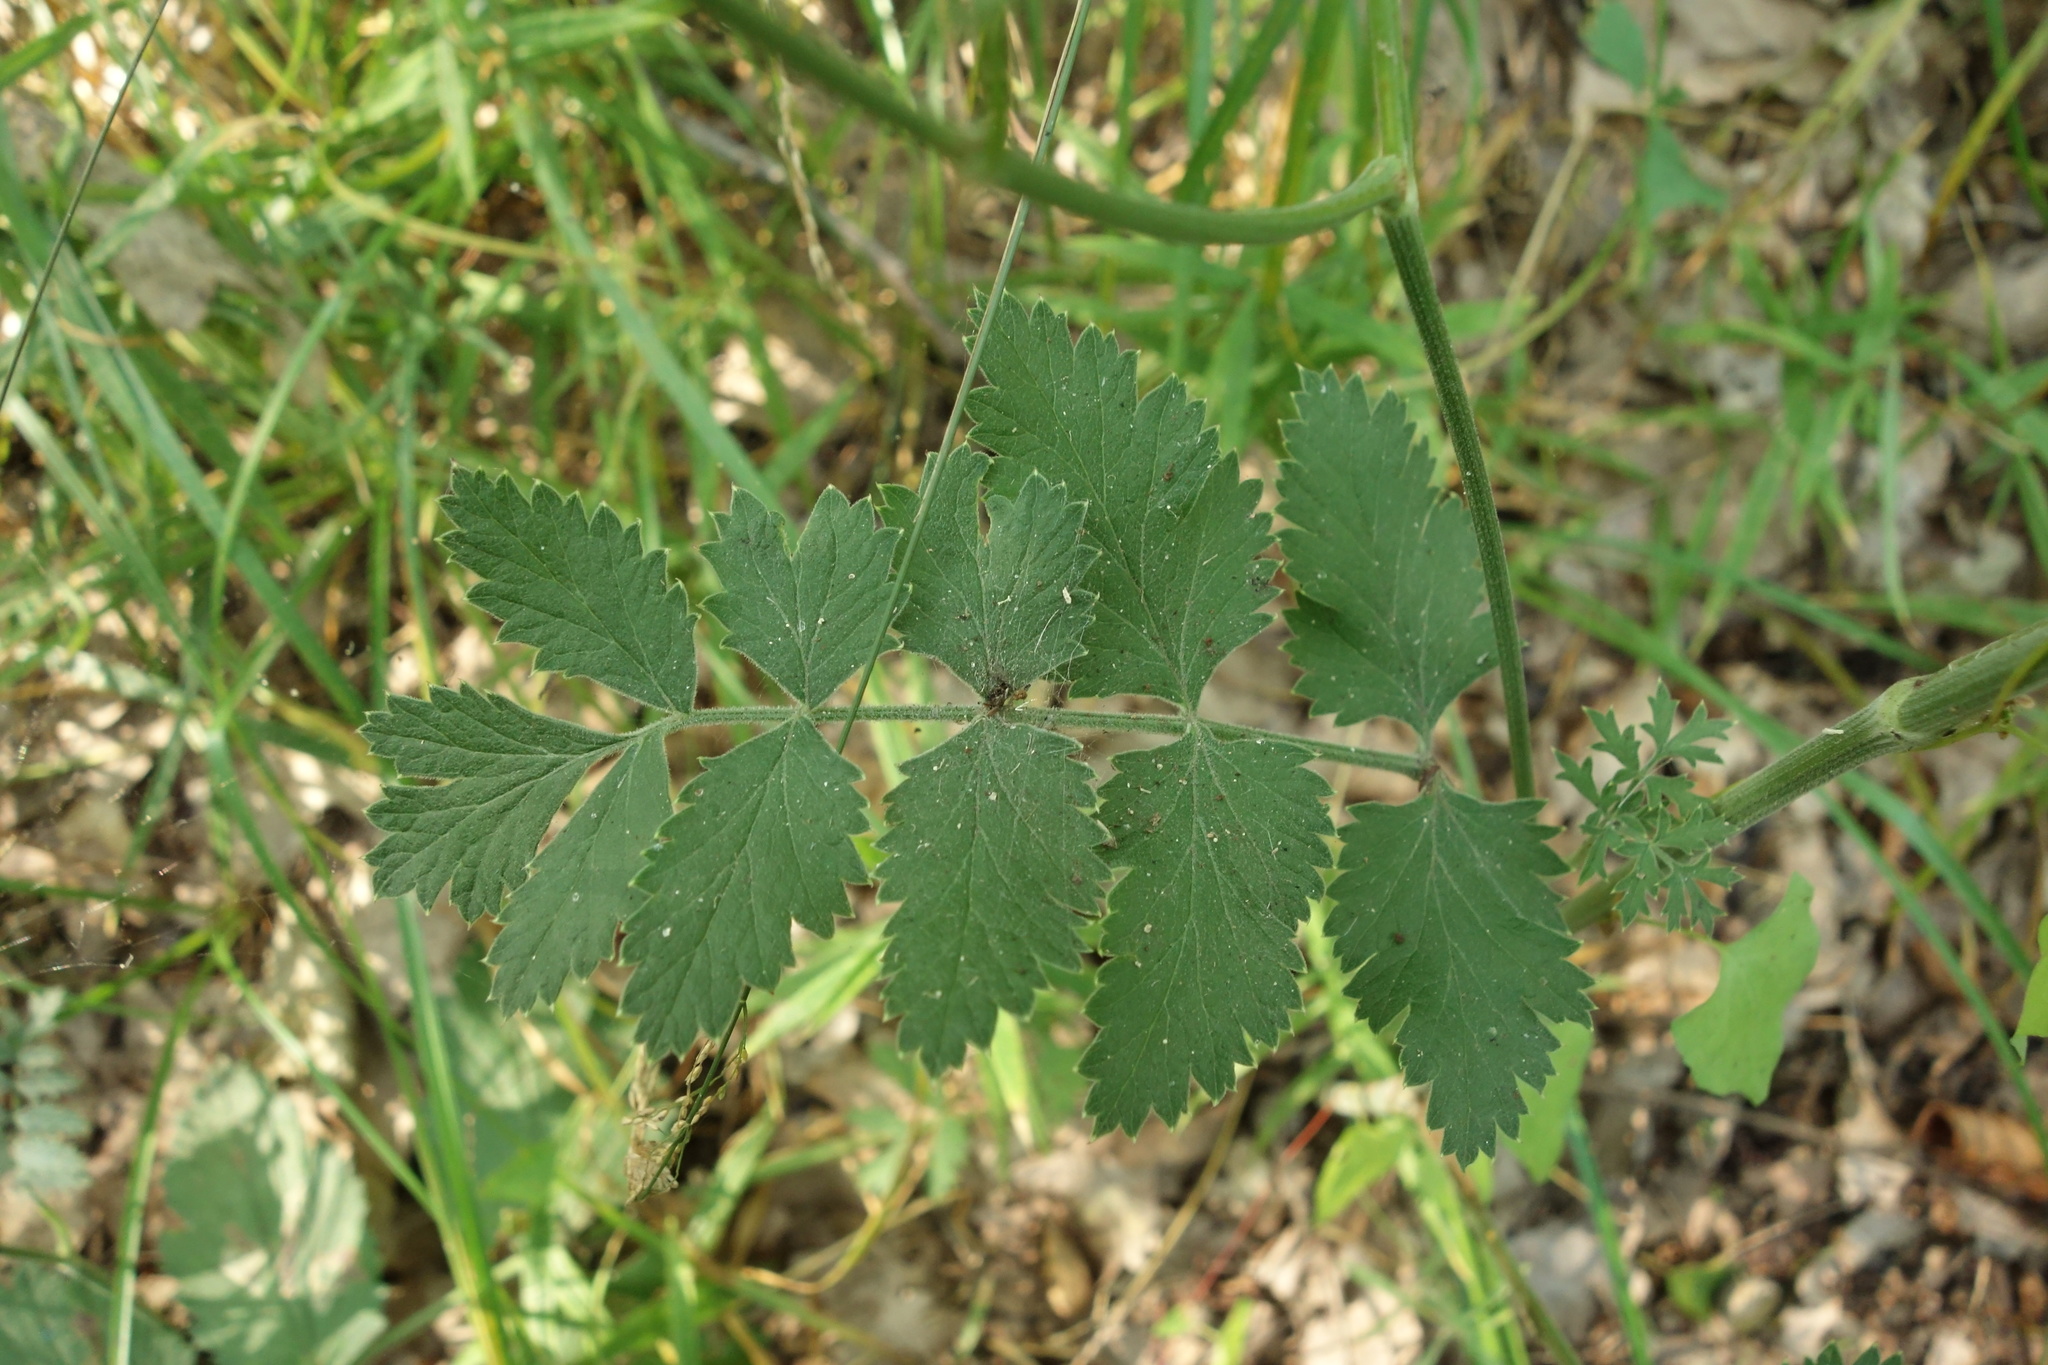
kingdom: Plantae
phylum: Tracheophyta
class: Magnoliopsida
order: Apiales
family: Apiaceae
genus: Pimpinella
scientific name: Pimpinella saxifraga
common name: Burnet-saxifrage
